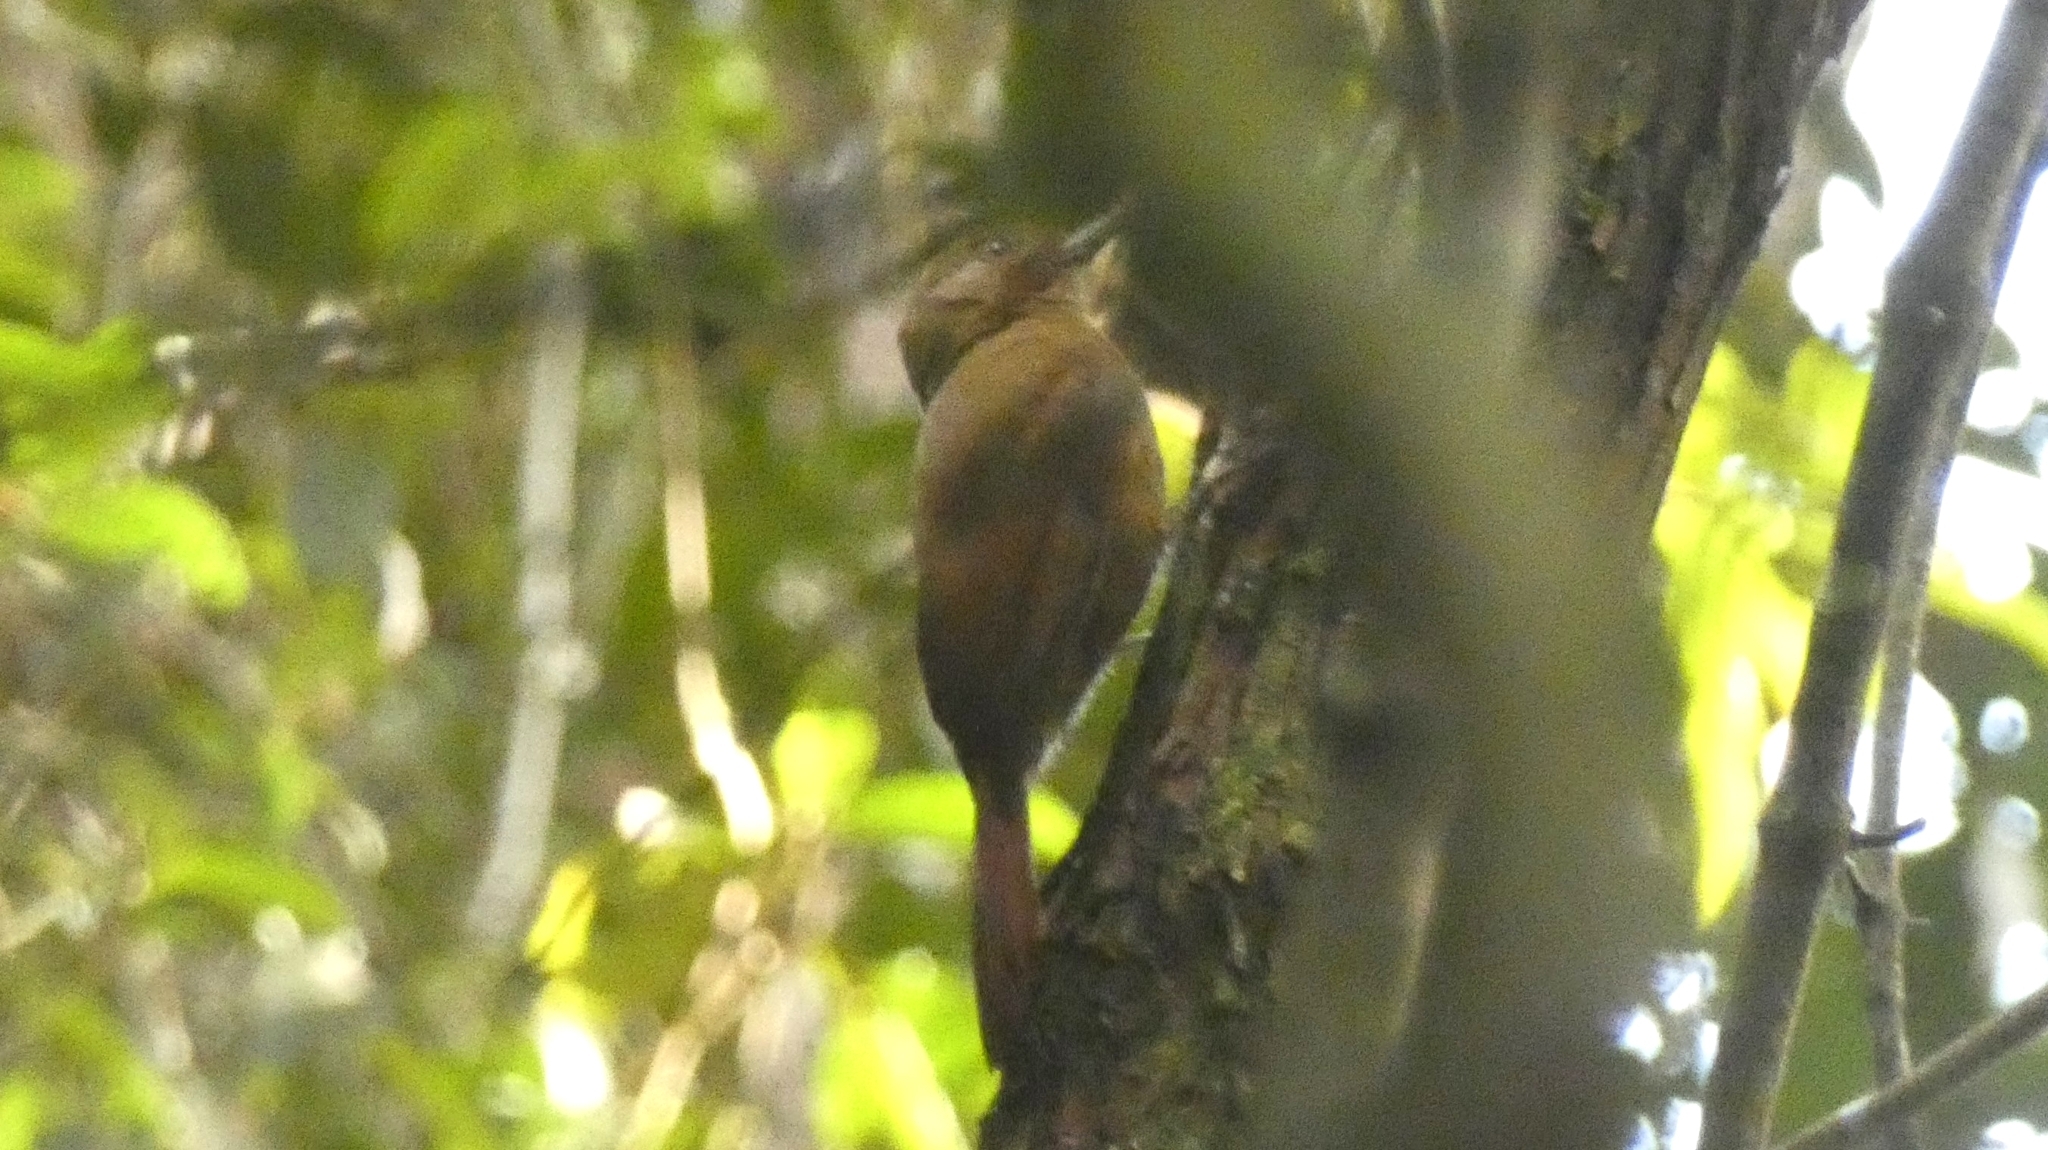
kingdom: Animalia
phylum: Chordata
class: Aves
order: Passeriformes
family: Furnariidae
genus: Dendrocincla
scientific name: Dendrocincla fuliginosa
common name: Plain-brown woodcreeper
